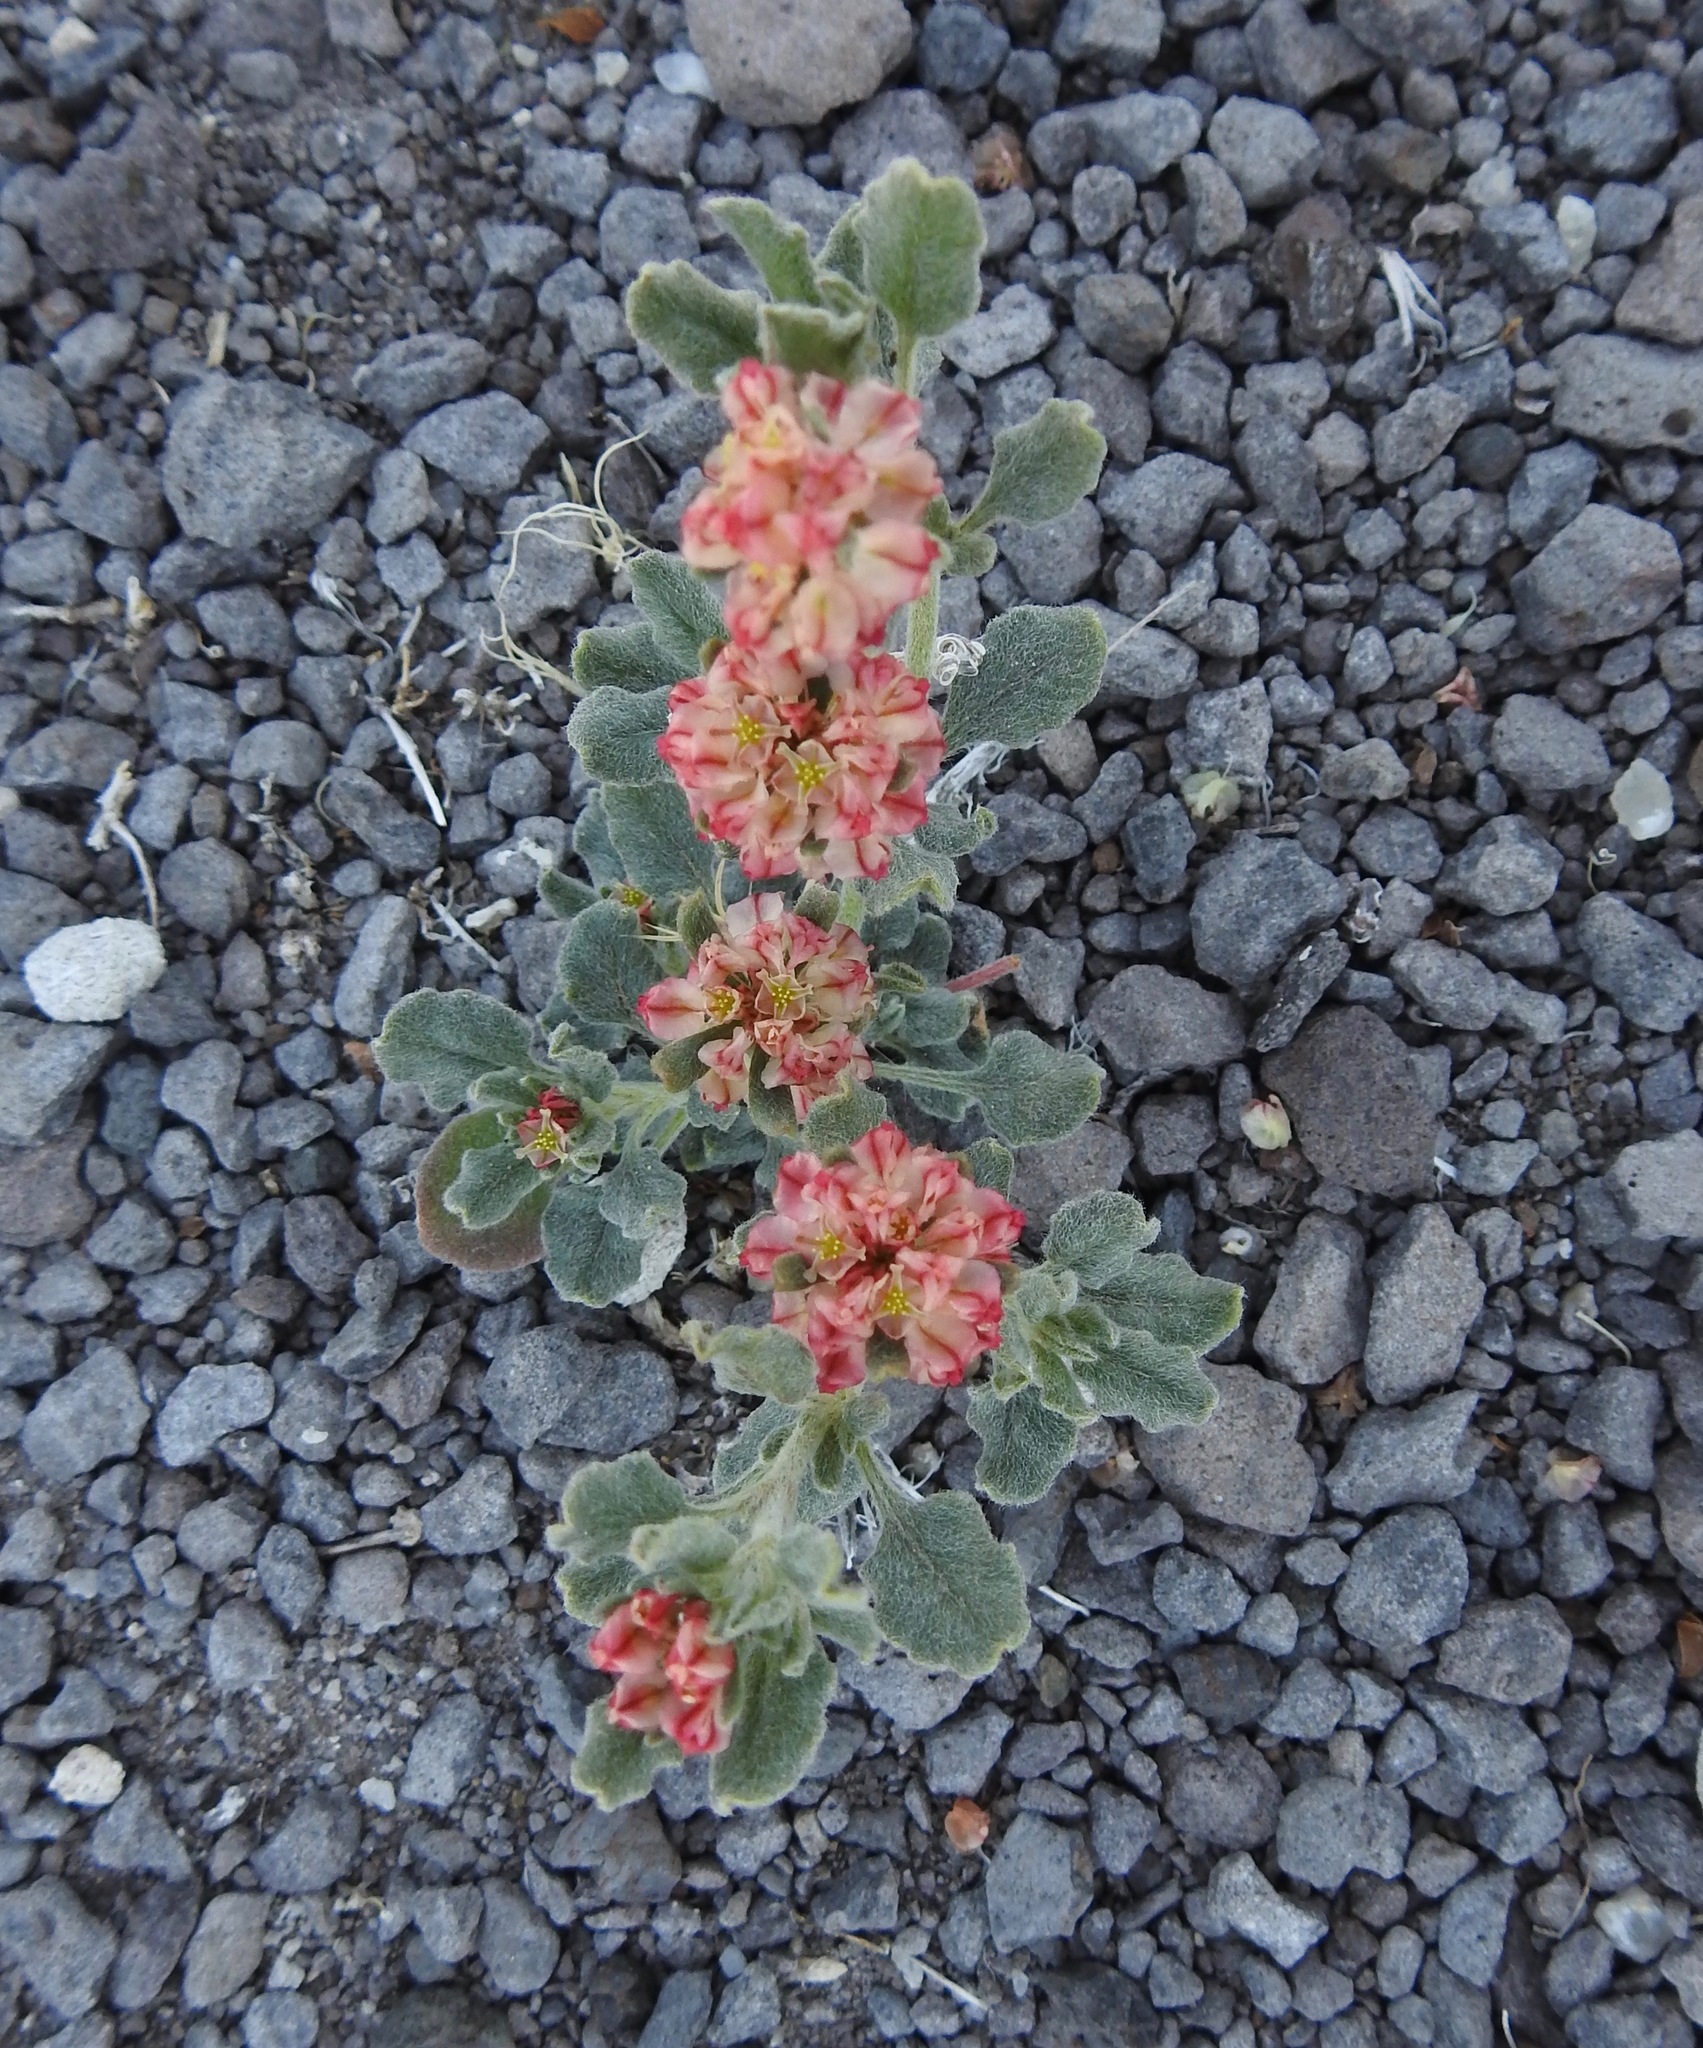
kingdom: Plantae
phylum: Tracheophyta
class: Magnoliopsida
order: Caryophyllales
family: Polygonaceae
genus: Eriogonum
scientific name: Eriogonum abertianum
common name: Abert's wild buckwheat
